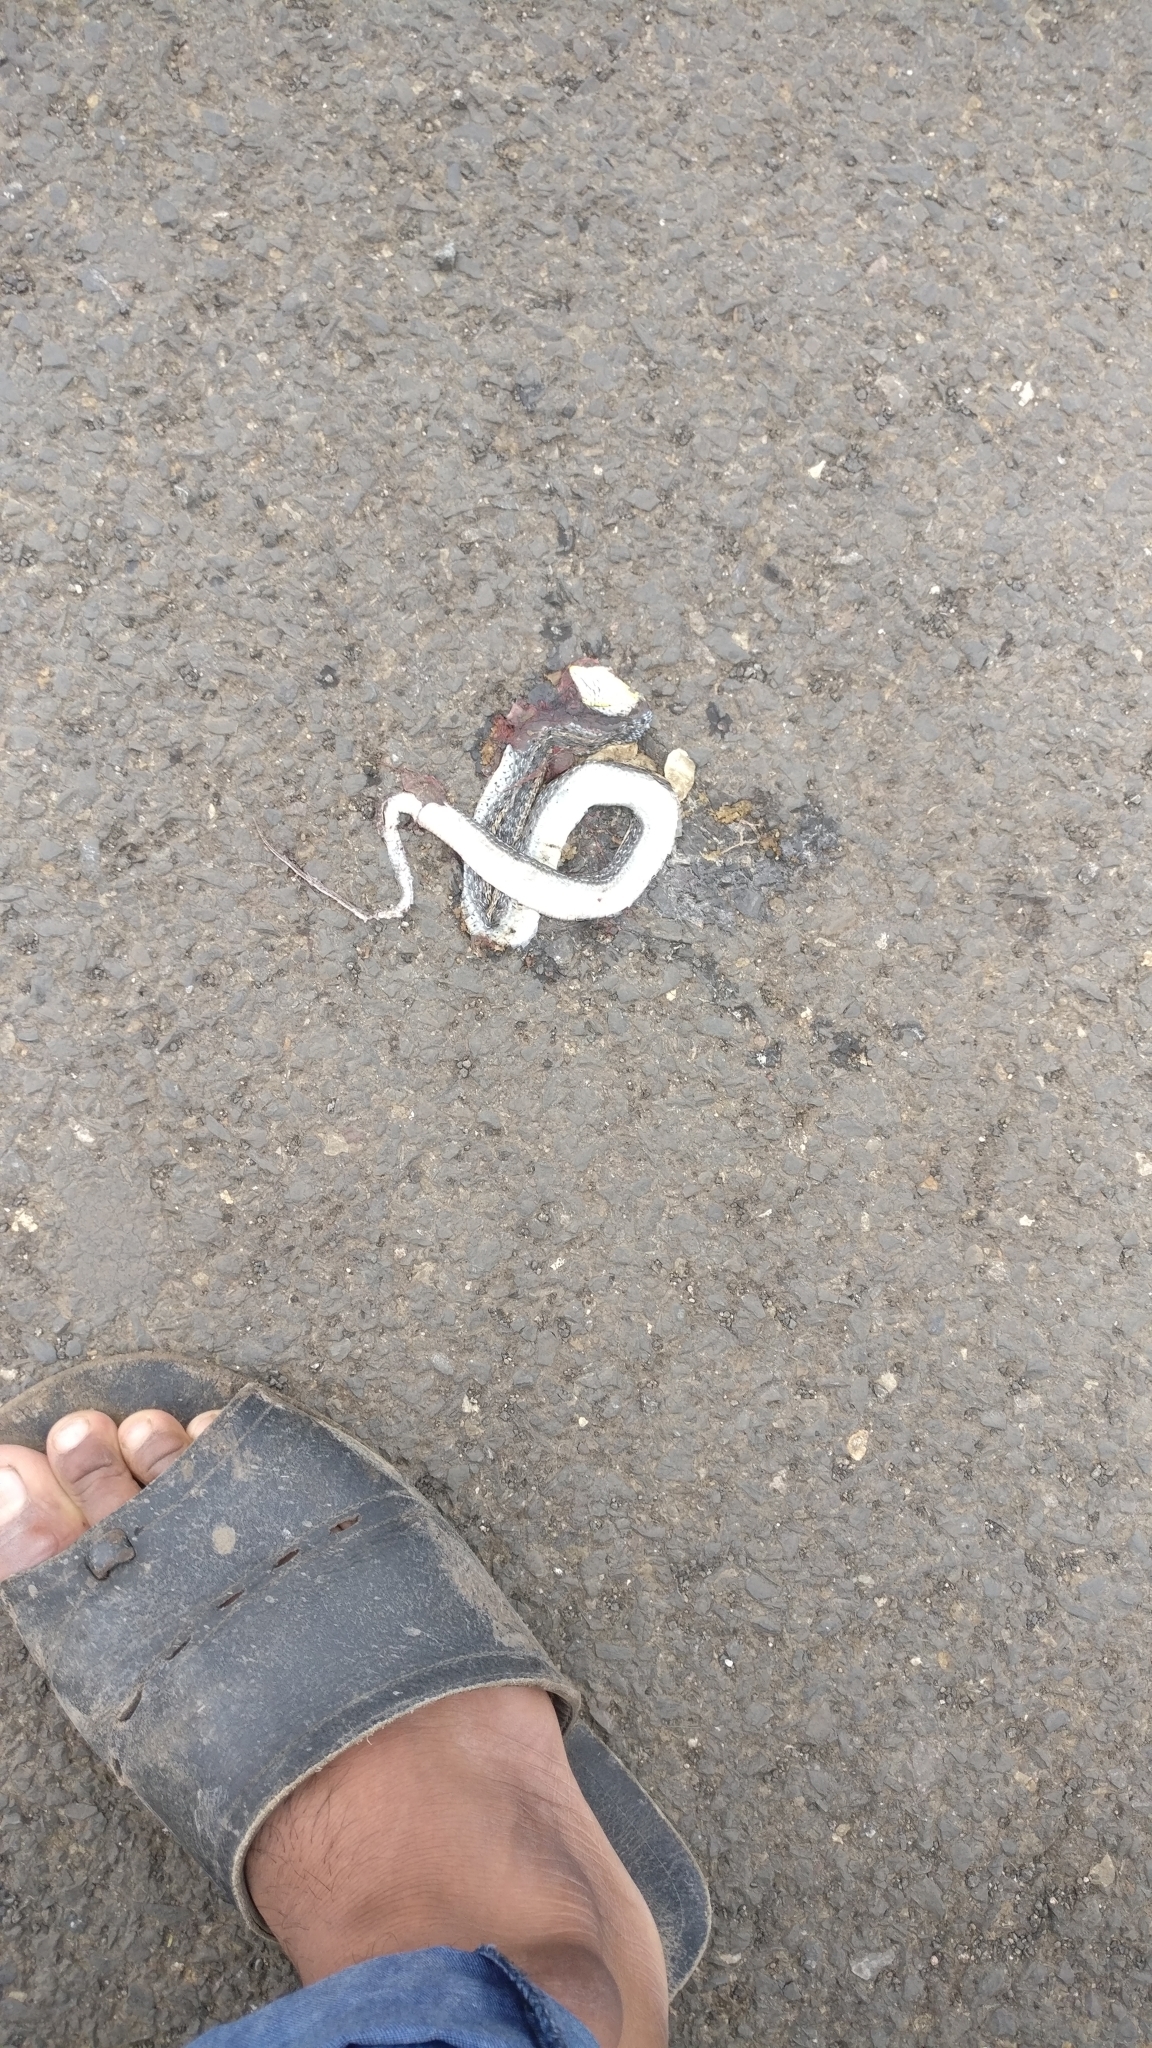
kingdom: Animalia
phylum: Chordata
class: Squamata
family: Colubridae
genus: Amphiesma
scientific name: Amphiesma stolatum
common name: Buff striped keelback
